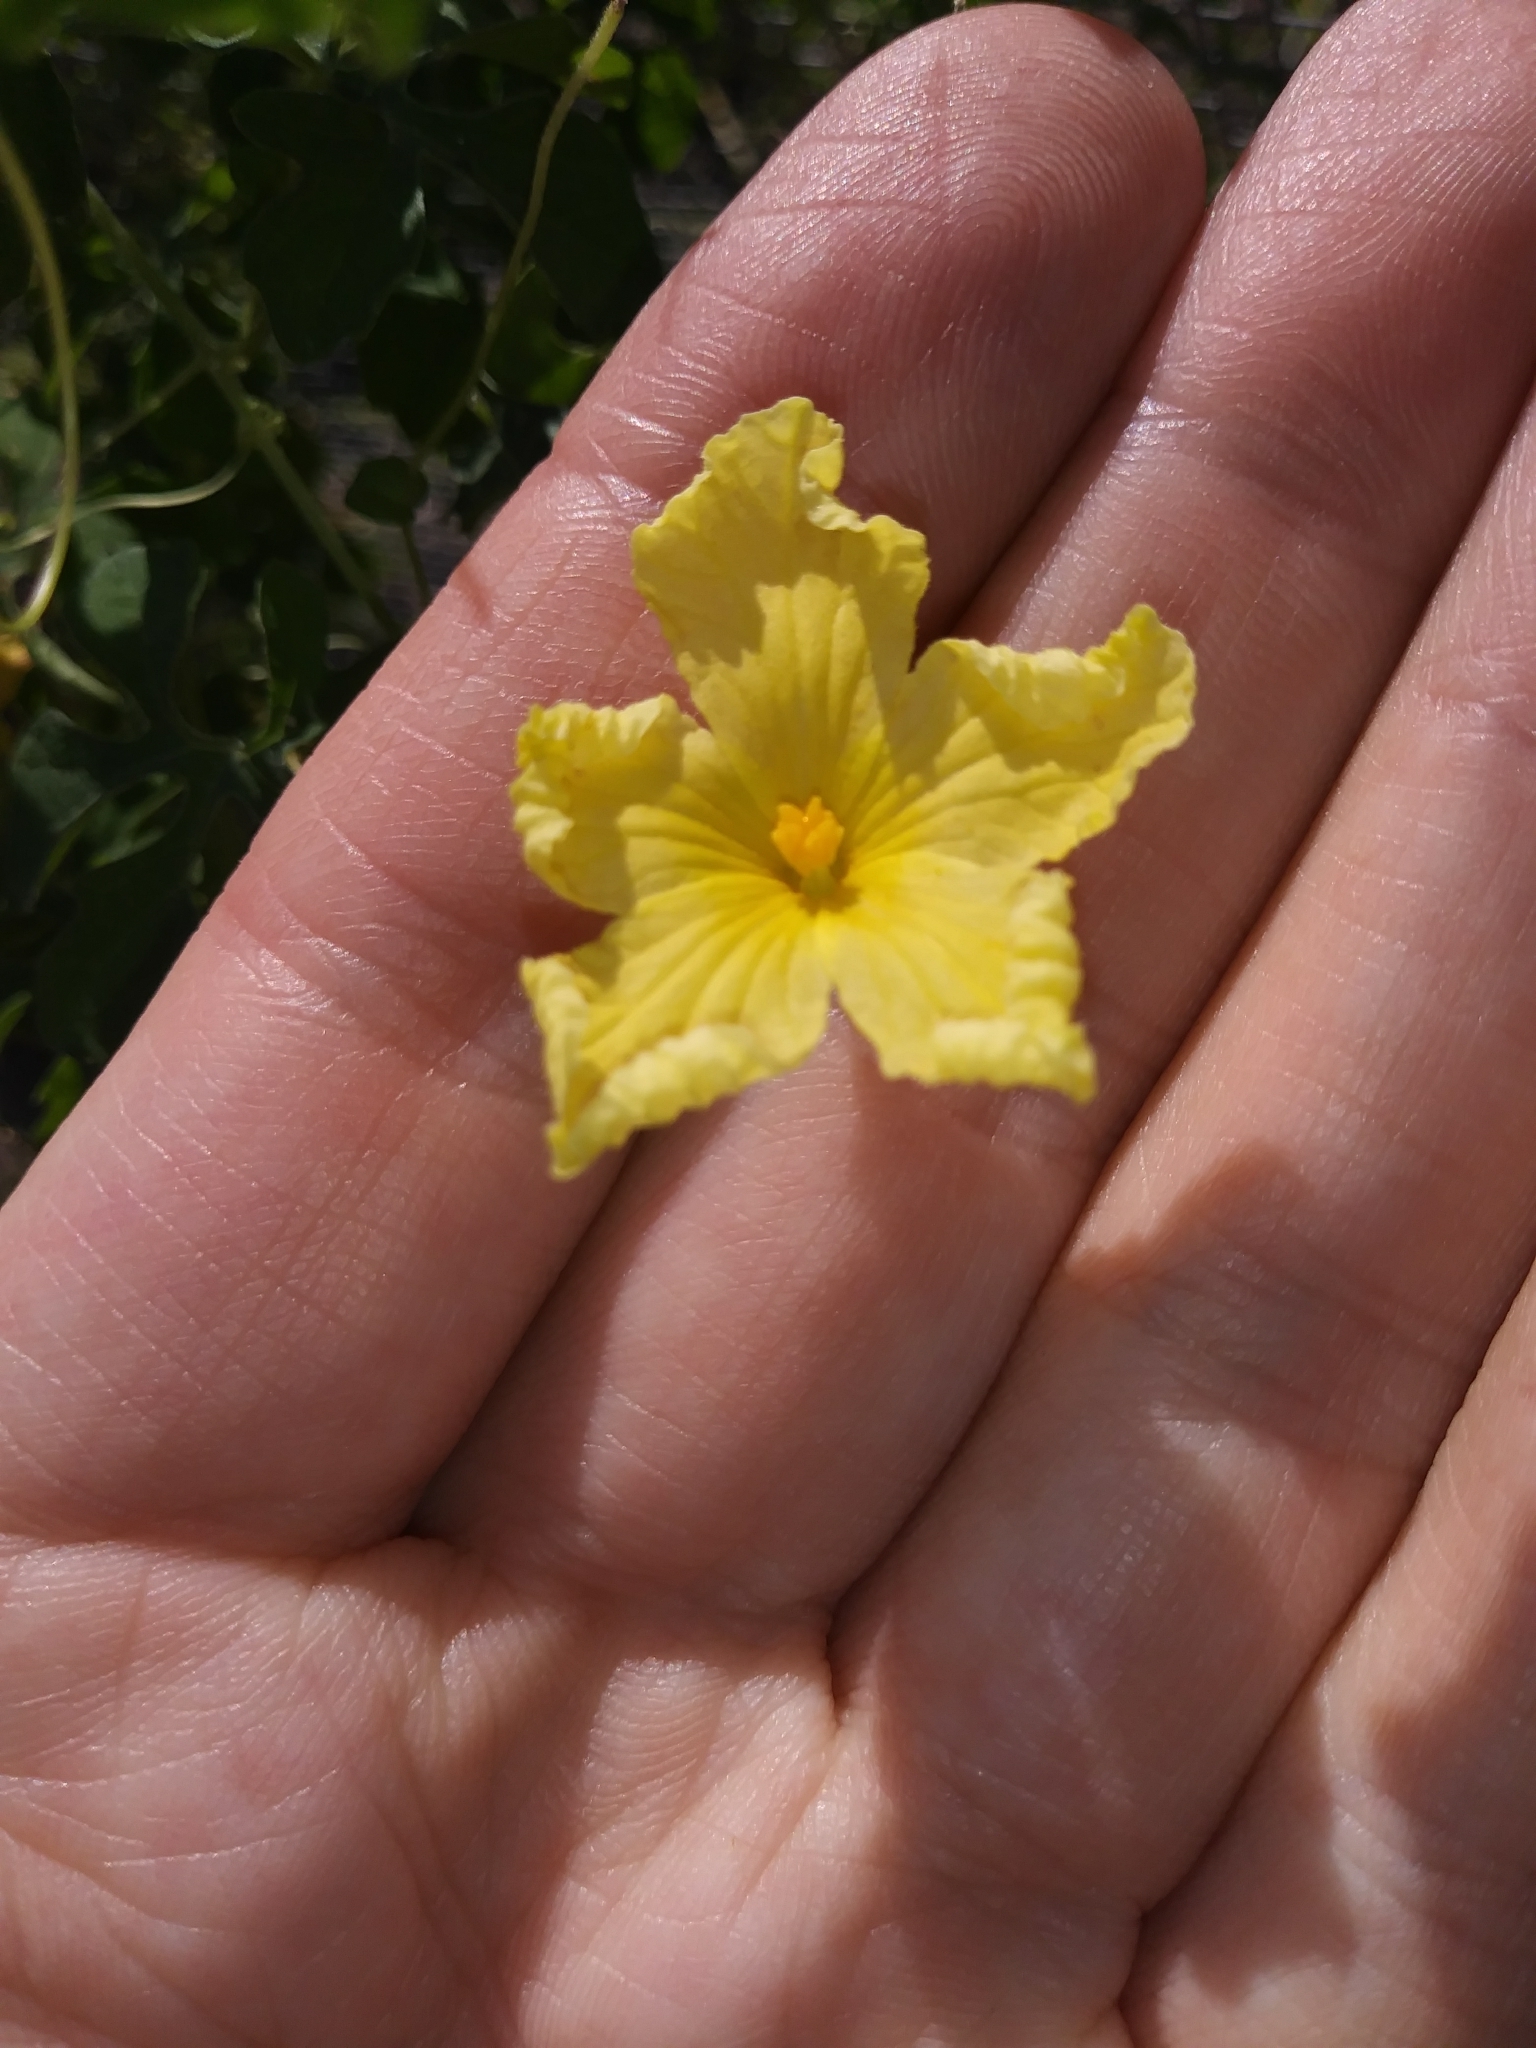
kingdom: Plantae
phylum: Tracheophyta
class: Magnoliopsida
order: Cucurbitales
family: Cucurbitaceae
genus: Momordica
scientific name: Momordica charantia
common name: Balsampear
